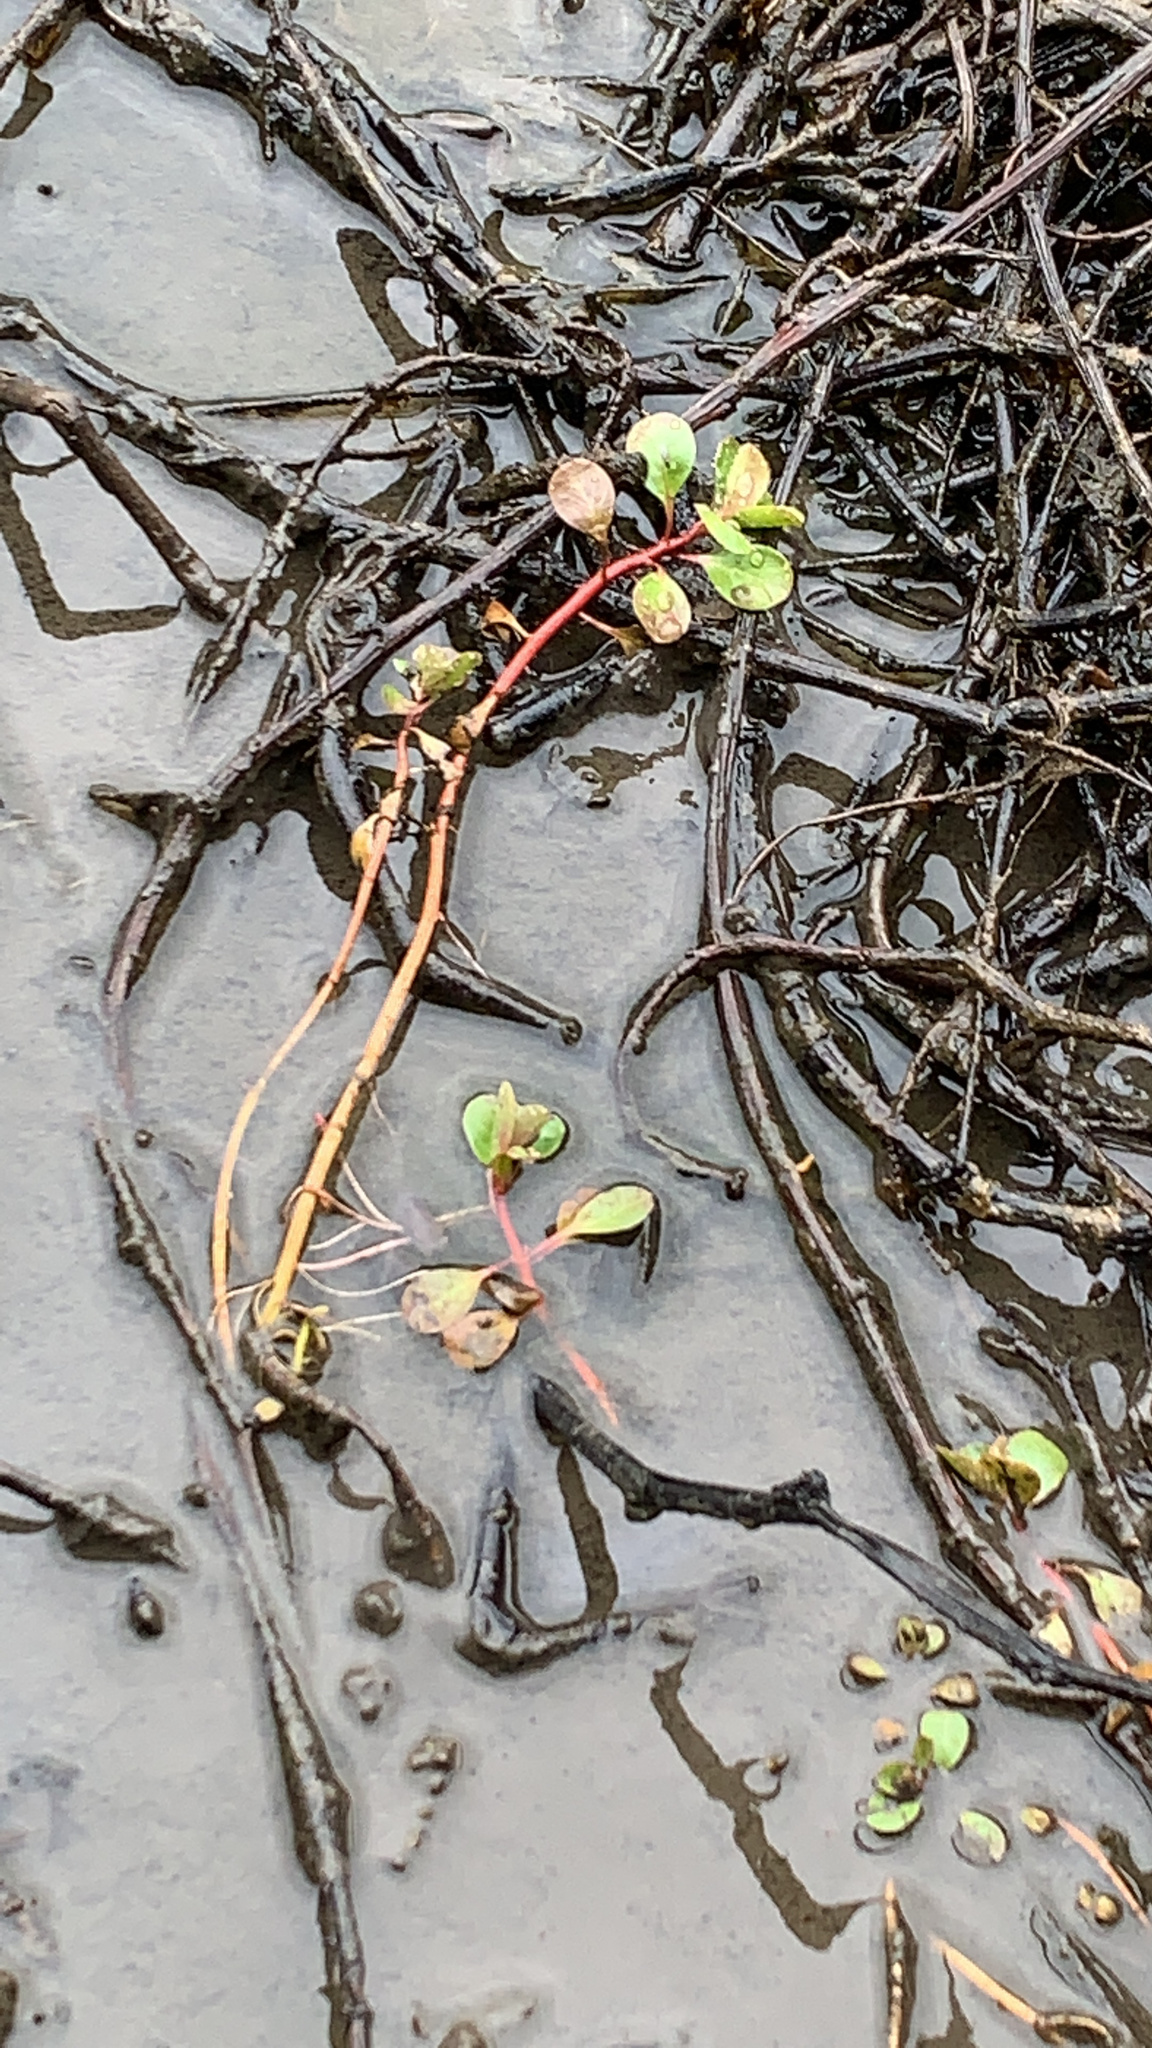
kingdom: Plantae
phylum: Tracheophyta
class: Magnoliopsida
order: Myrtales
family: Onagraceae
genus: Ludwigia
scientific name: Ludwigia peploides
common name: Floating primrose-willow
